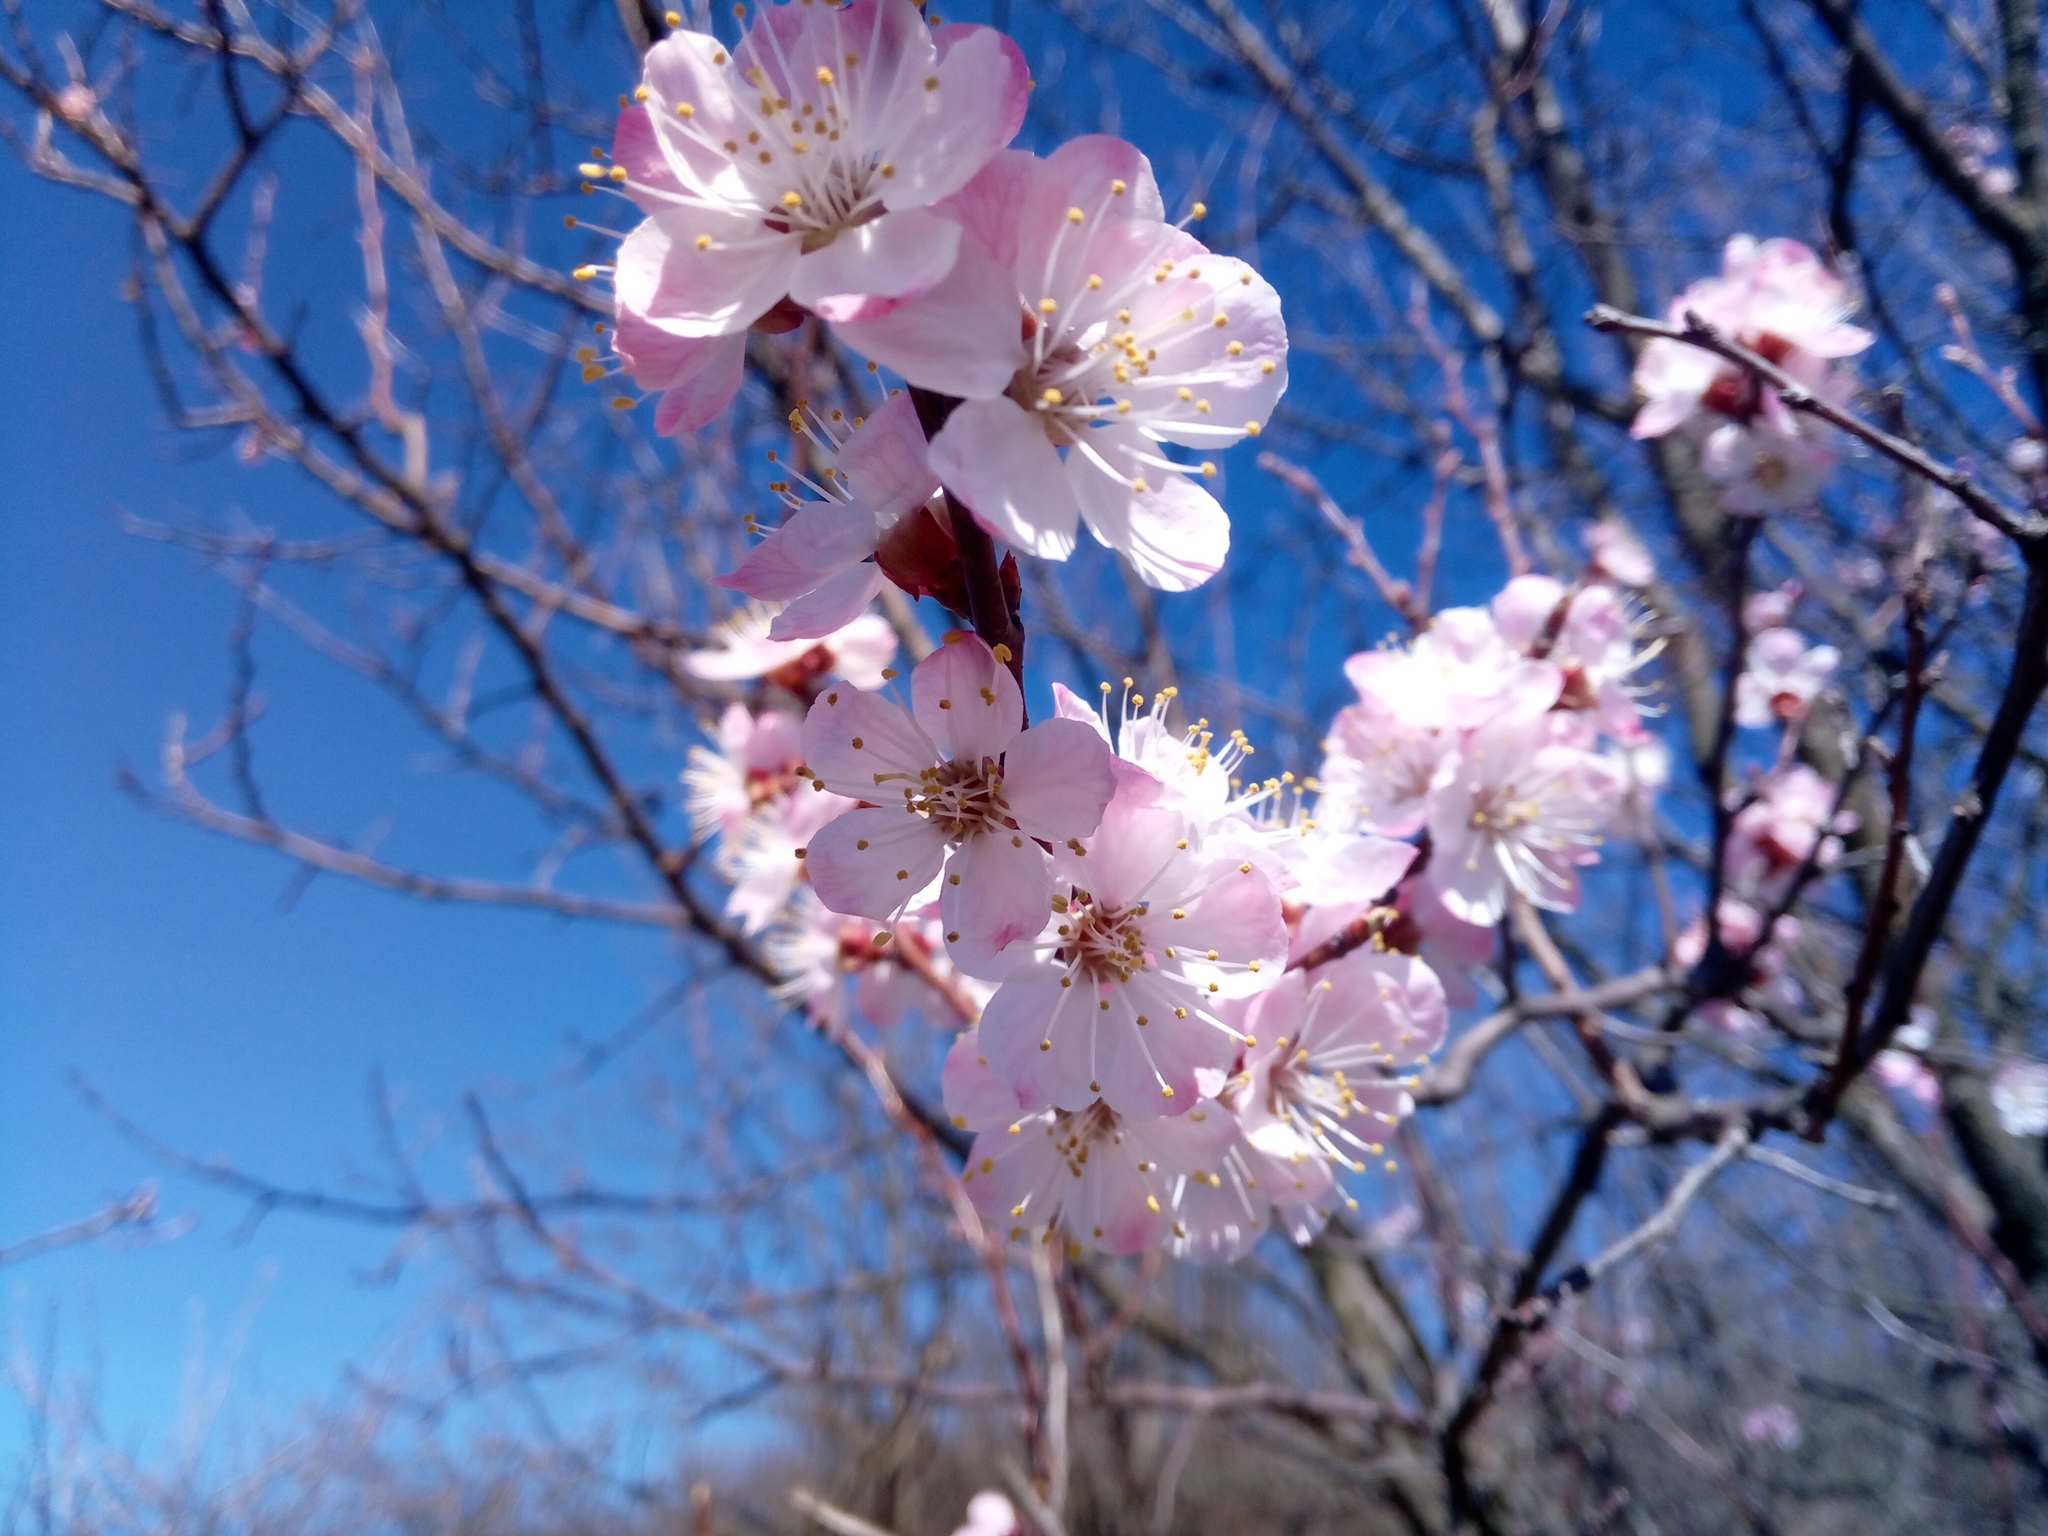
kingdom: Plantae
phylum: Tracheophyta
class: Magnoliopsida
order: Rosales
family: Rosaceae
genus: Prunus
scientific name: Prunus armeniaca
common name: Apricot
